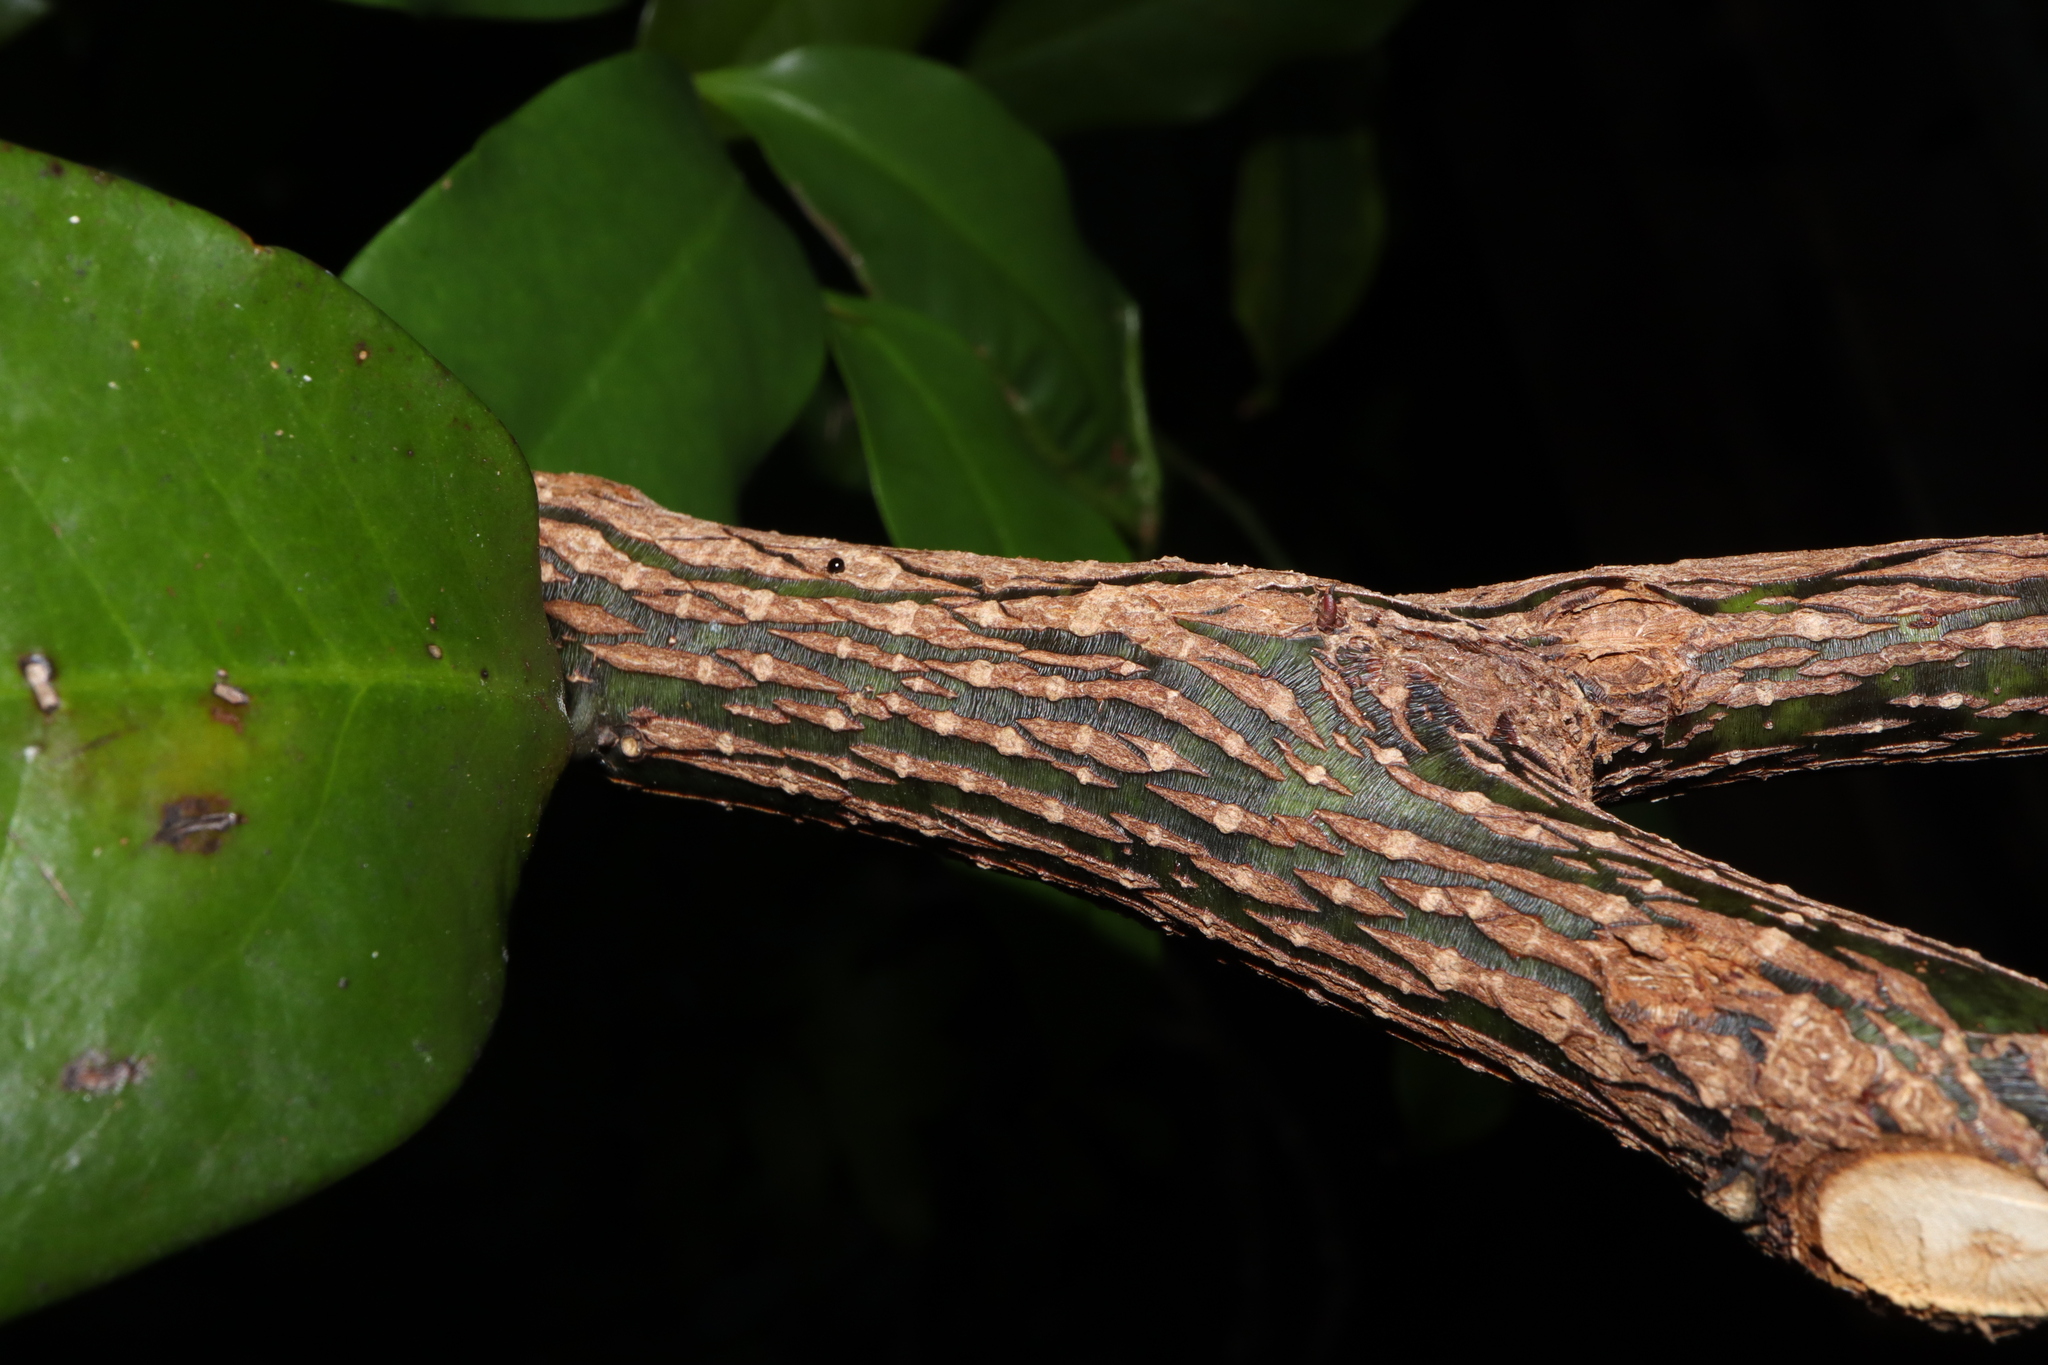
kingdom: Plantae
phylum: Tracheophyta
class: Magnoliopsida
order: Magnoliales
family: Eupomatiaceae
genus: Eupomatia
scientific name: Eupomatia laurina
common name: Bolwarra
